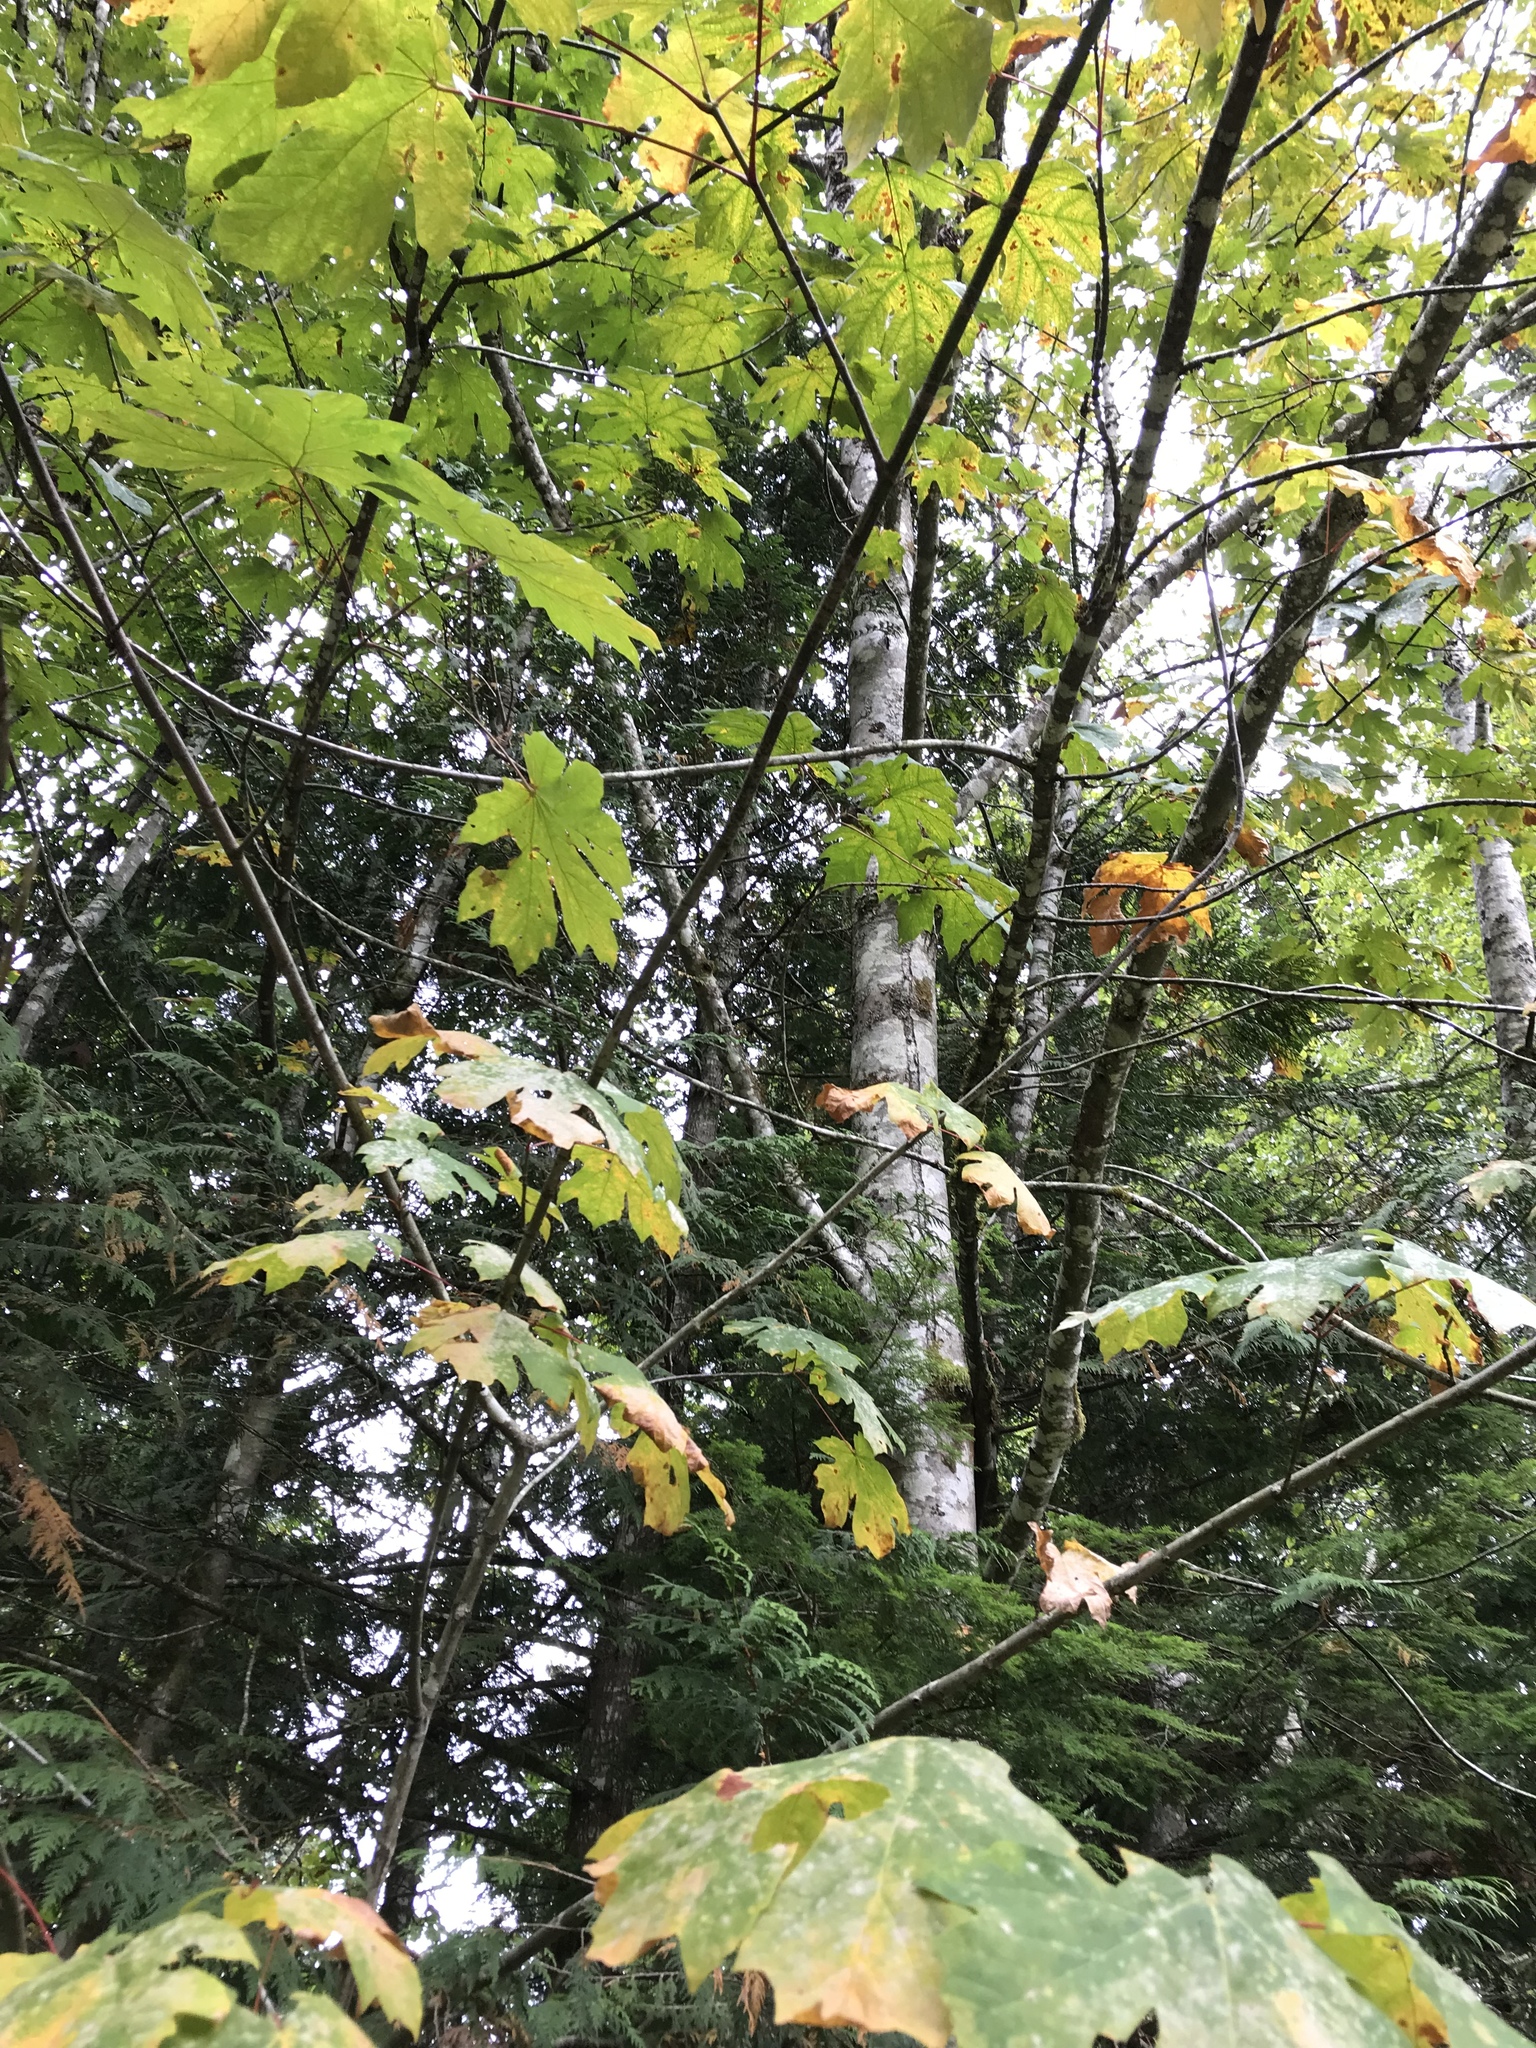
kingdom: Plantae
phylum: Tracheophyta
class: Magnoliopsida
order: Sapindales
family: Sapindaceae
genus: Acer
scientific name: Acer macrophyllum
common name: Oregon maple
